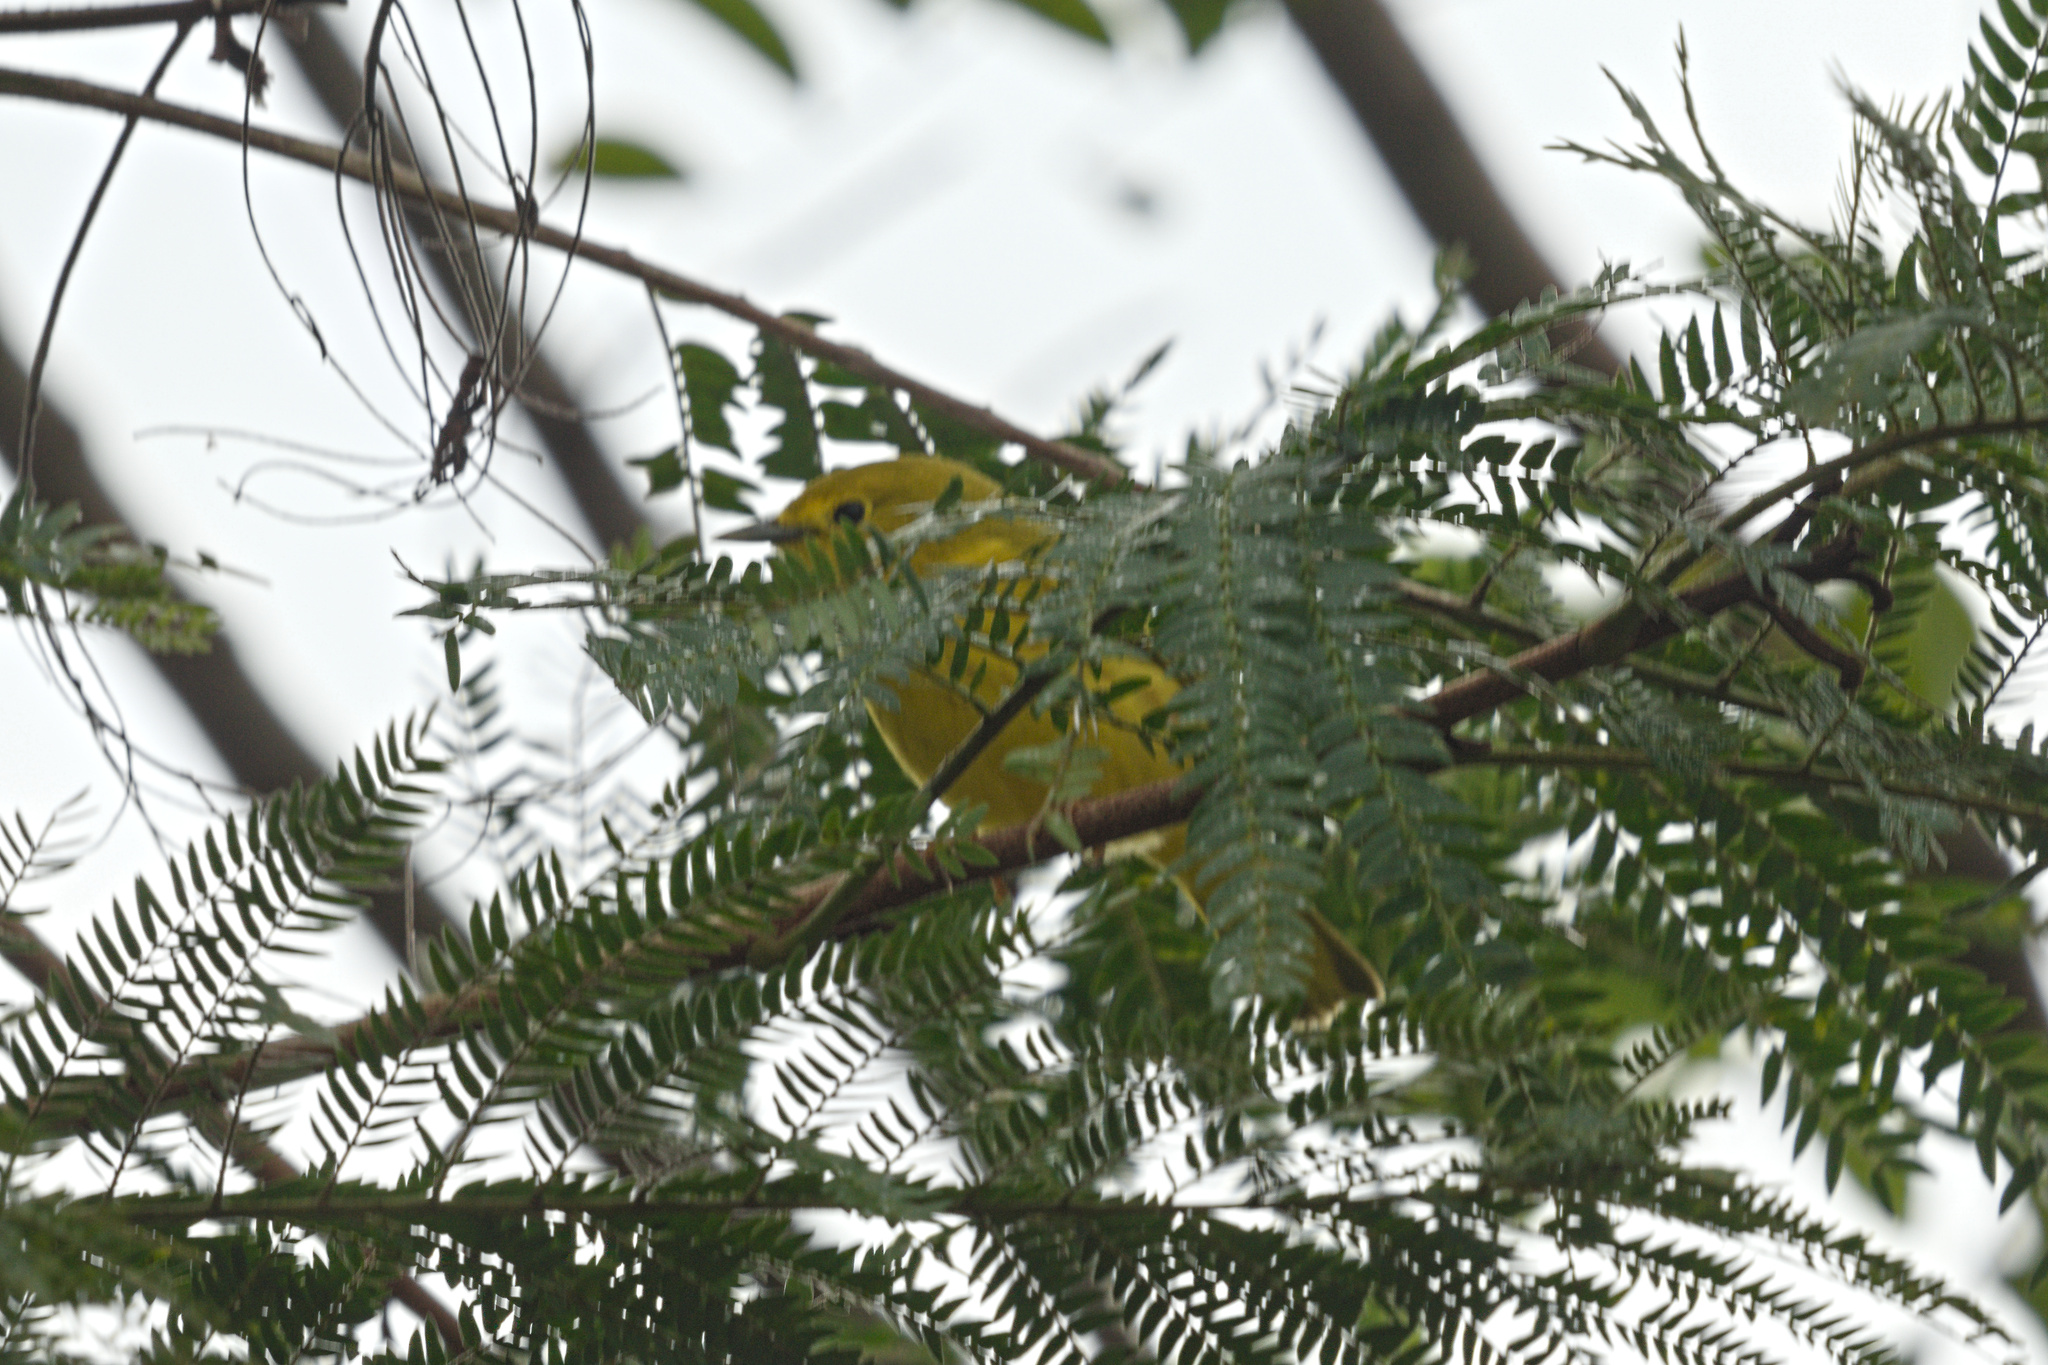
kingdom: Animalia
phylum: Chordata
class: Aves
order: Passeriformes
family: Parulidae
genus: Setophaga
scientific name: Setophaga petechia
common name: Yellow warbler
